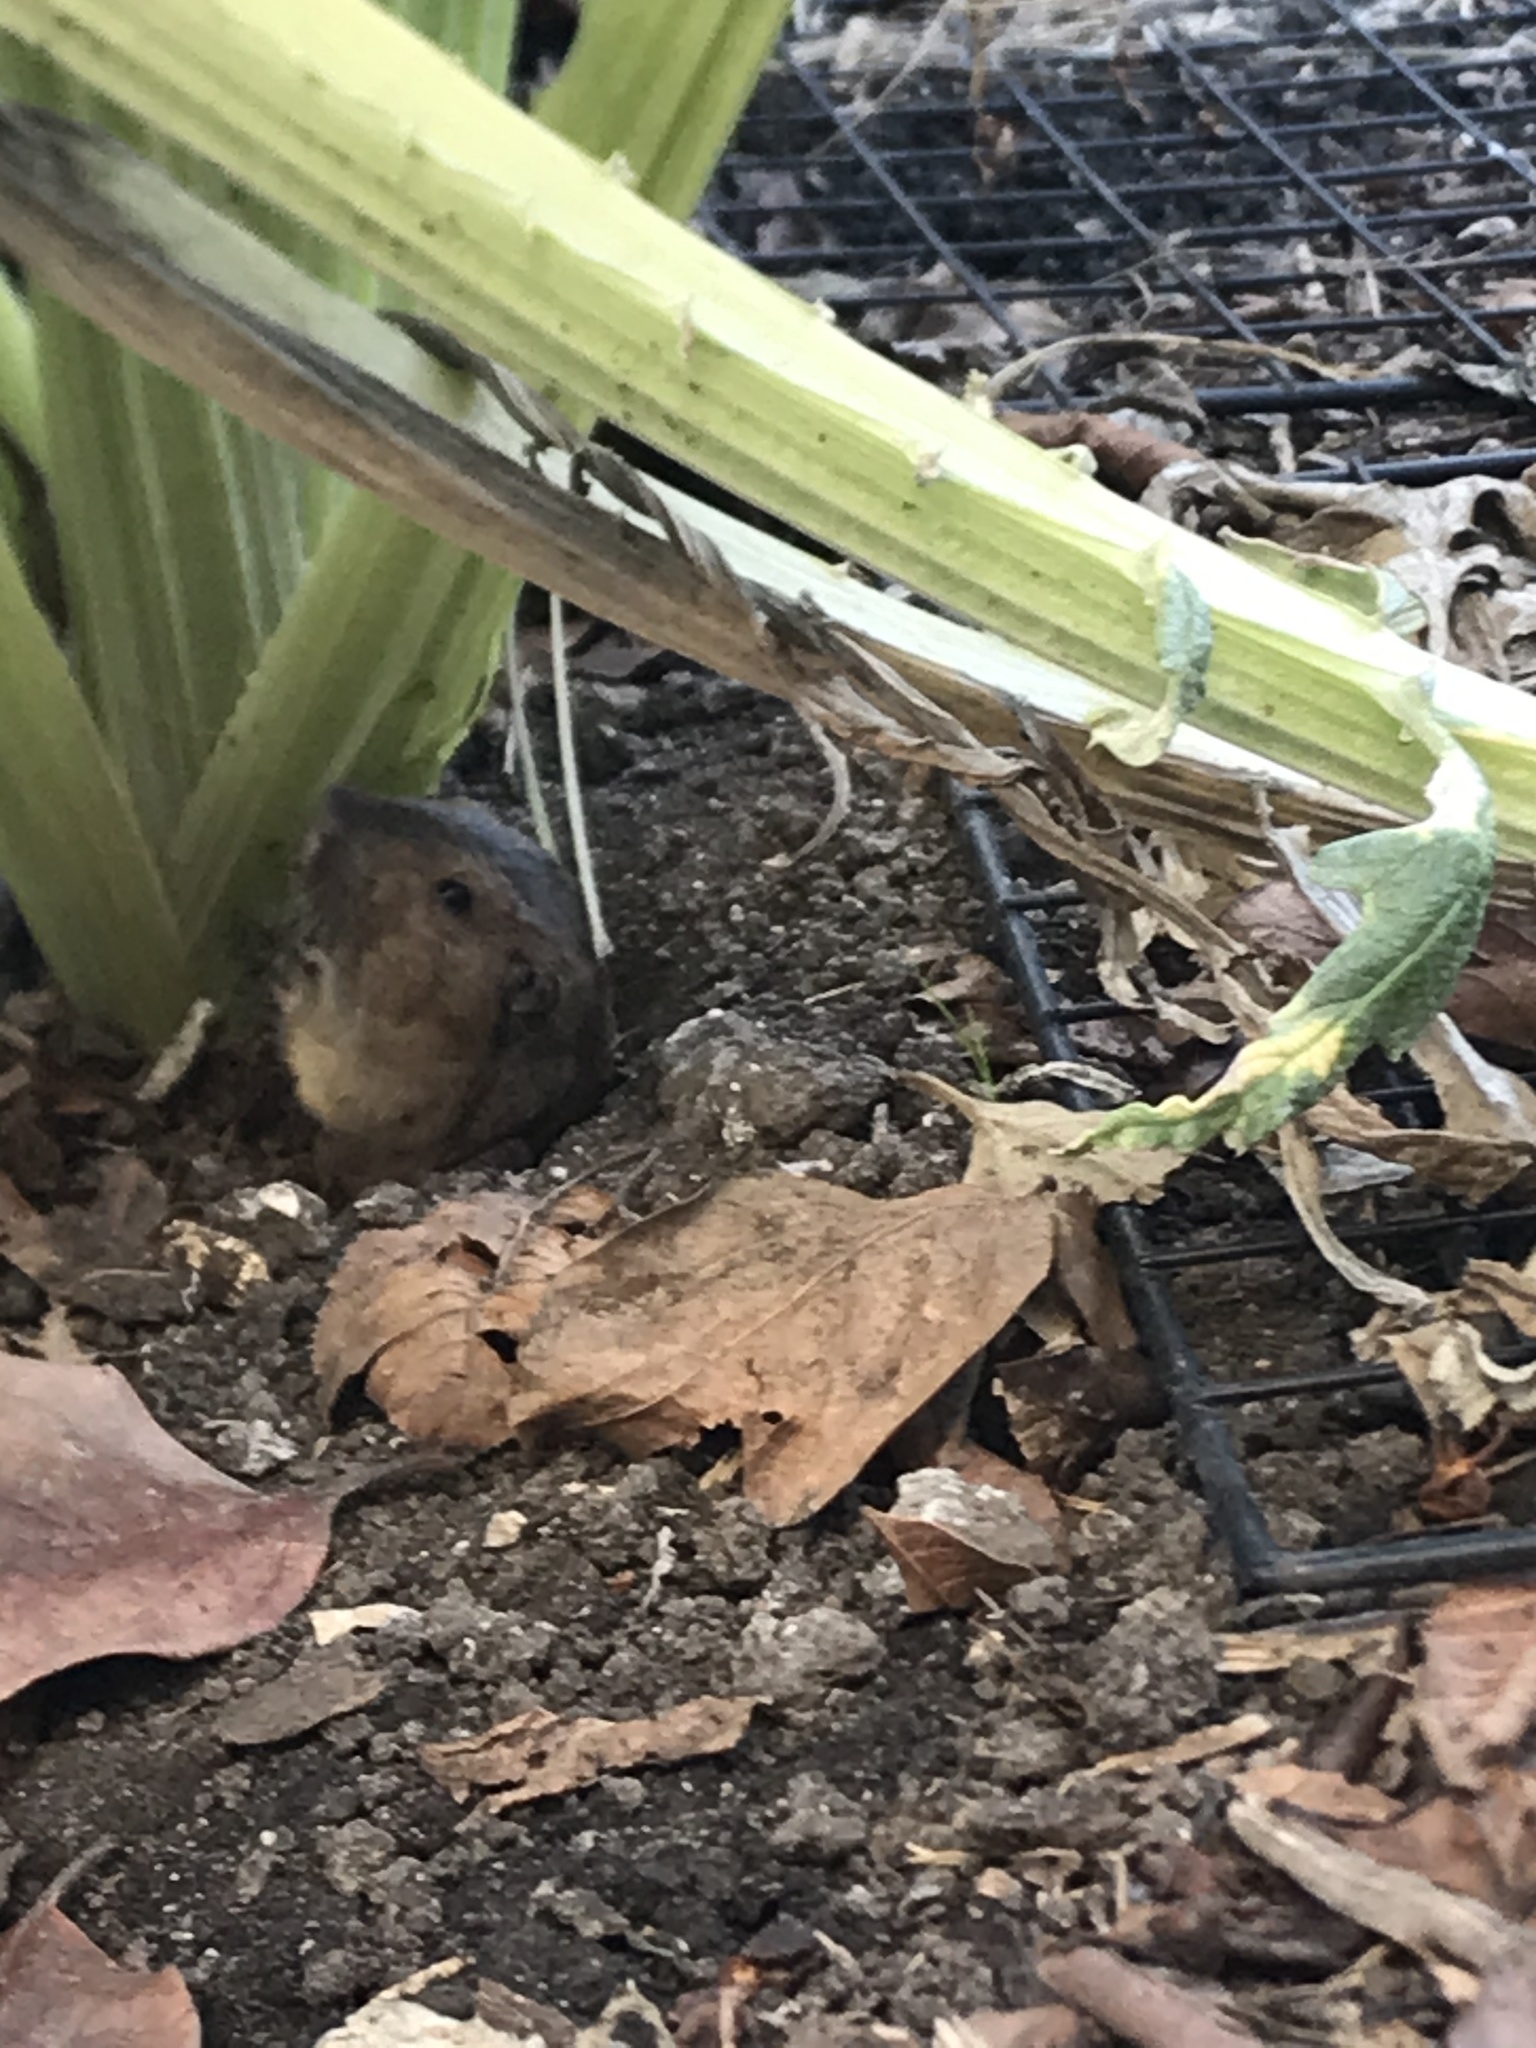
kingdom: Animalia
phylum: Chordata
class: Mammalia
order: Rodentia
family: Geomyidae
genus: Thomomys
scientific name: Thomomys bottae
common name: Botta's pocket gopher
